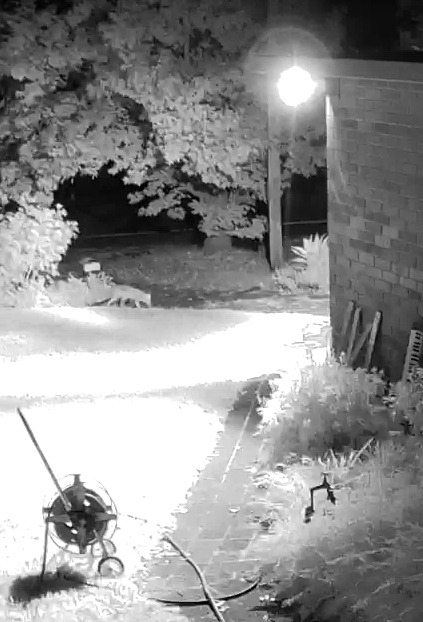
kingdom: Animalia
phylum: Chordata
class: Mammalia
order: Carnivora
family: Canidae
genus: Vulpes
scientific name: Vulpes vulpes
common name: Red fox
